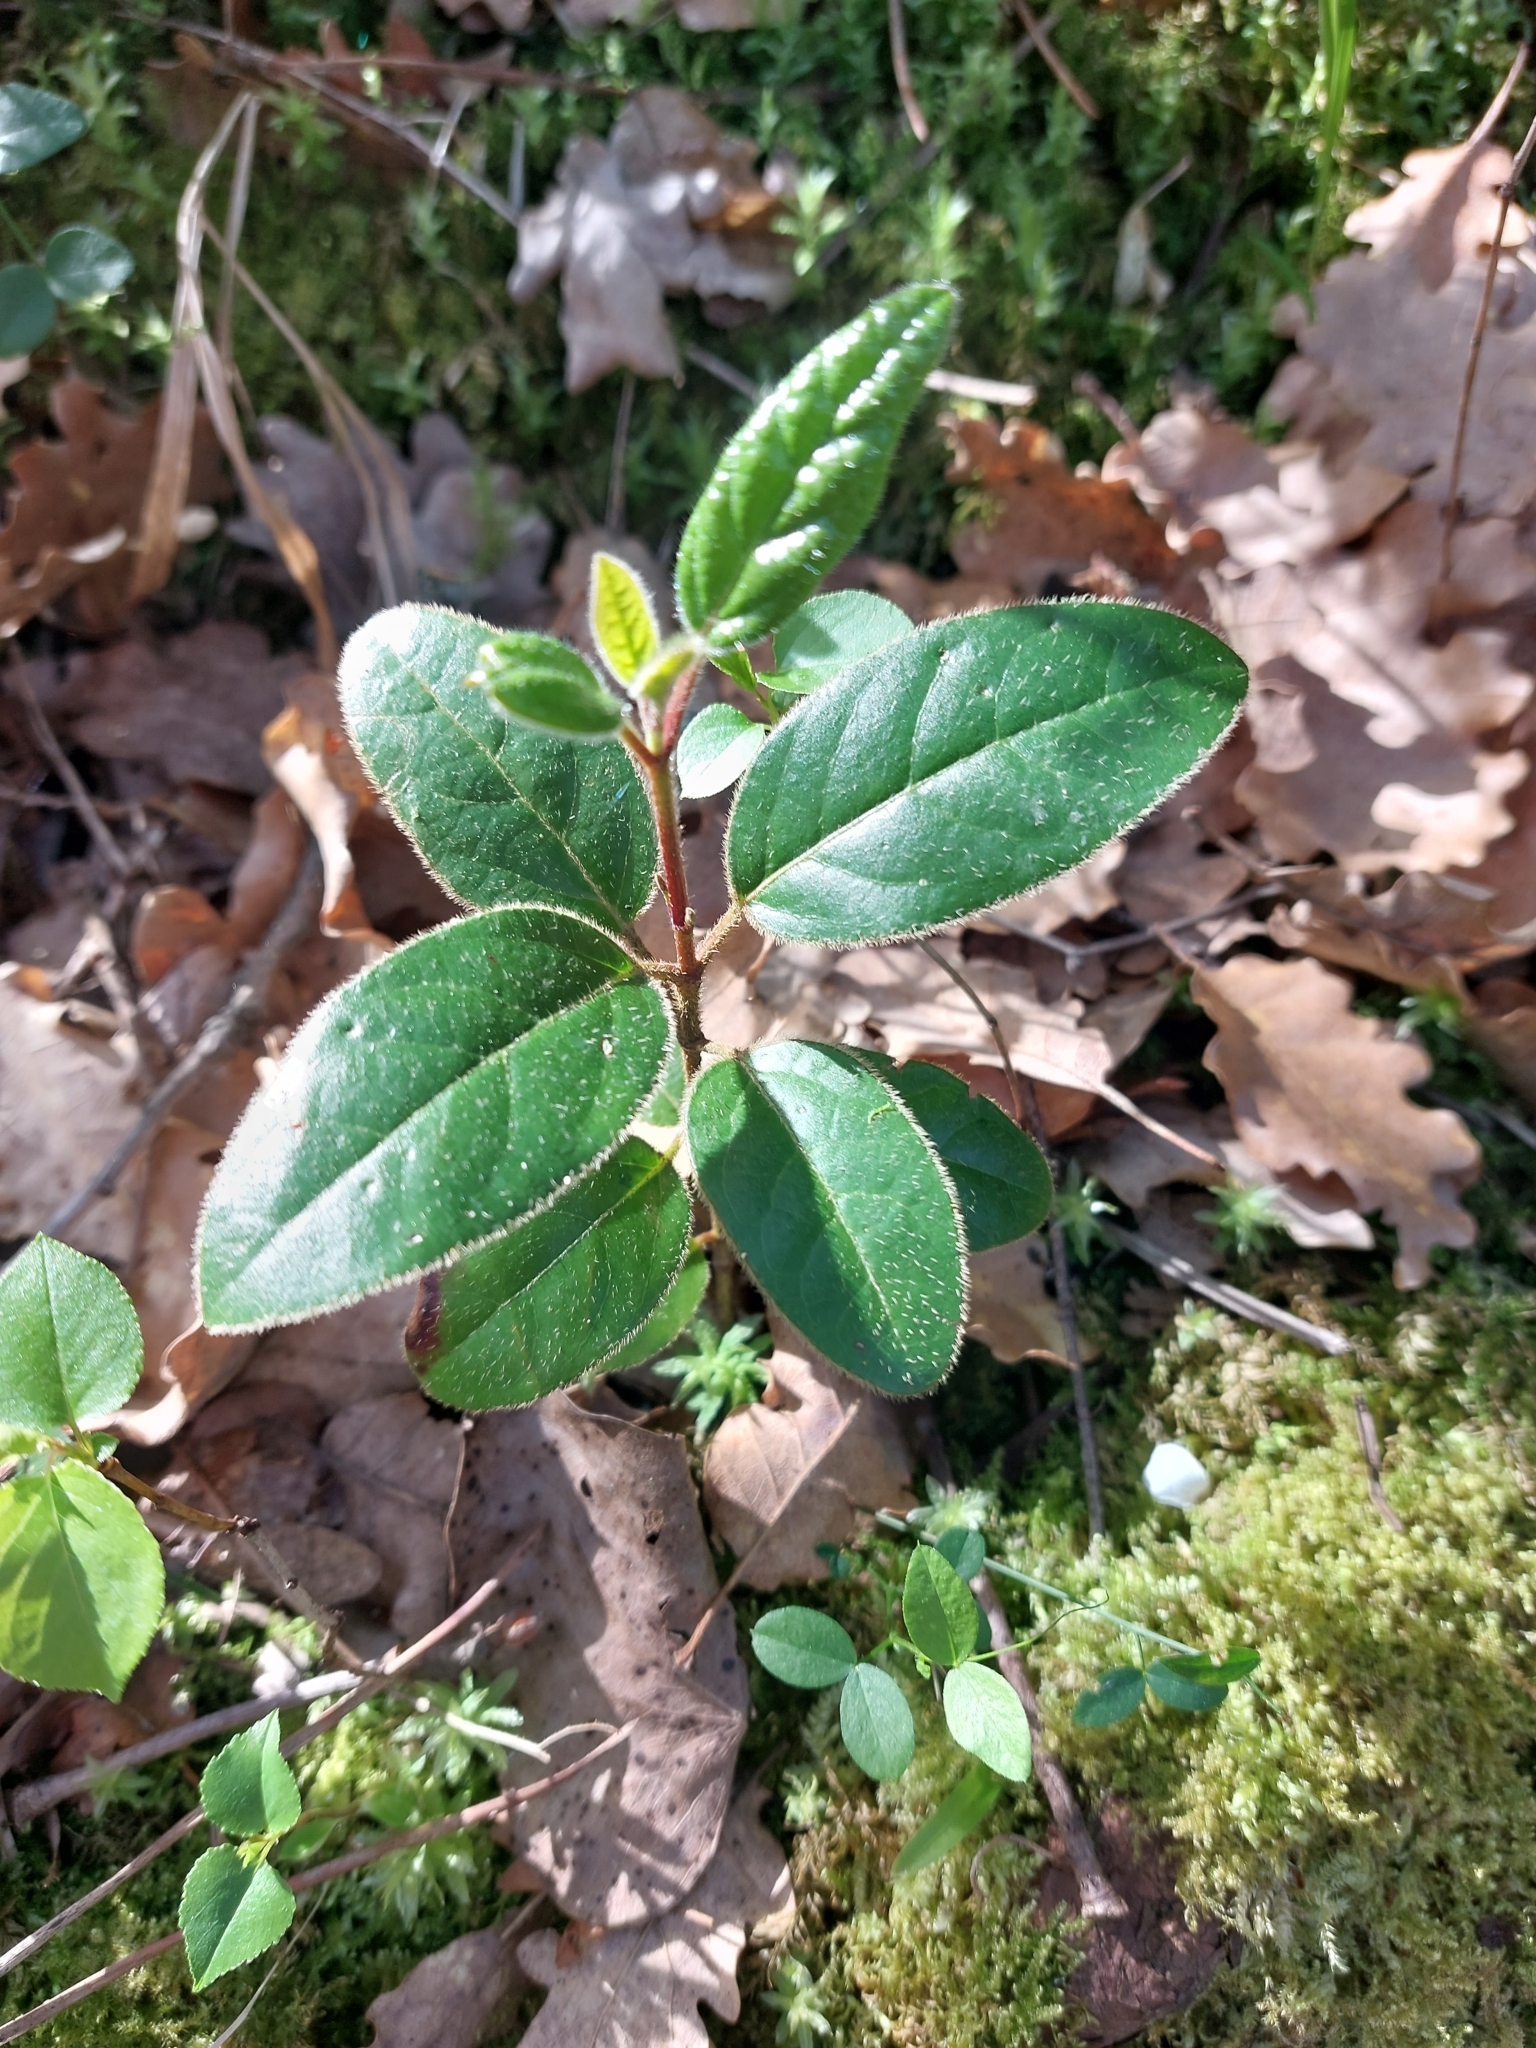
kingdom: Plantae
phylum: Tracheophyta
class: Magnoliopsida
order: Dipsacales
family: Viburnaceae
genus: Viburnum
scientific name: Viburnum tinus
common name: Laurustinus
